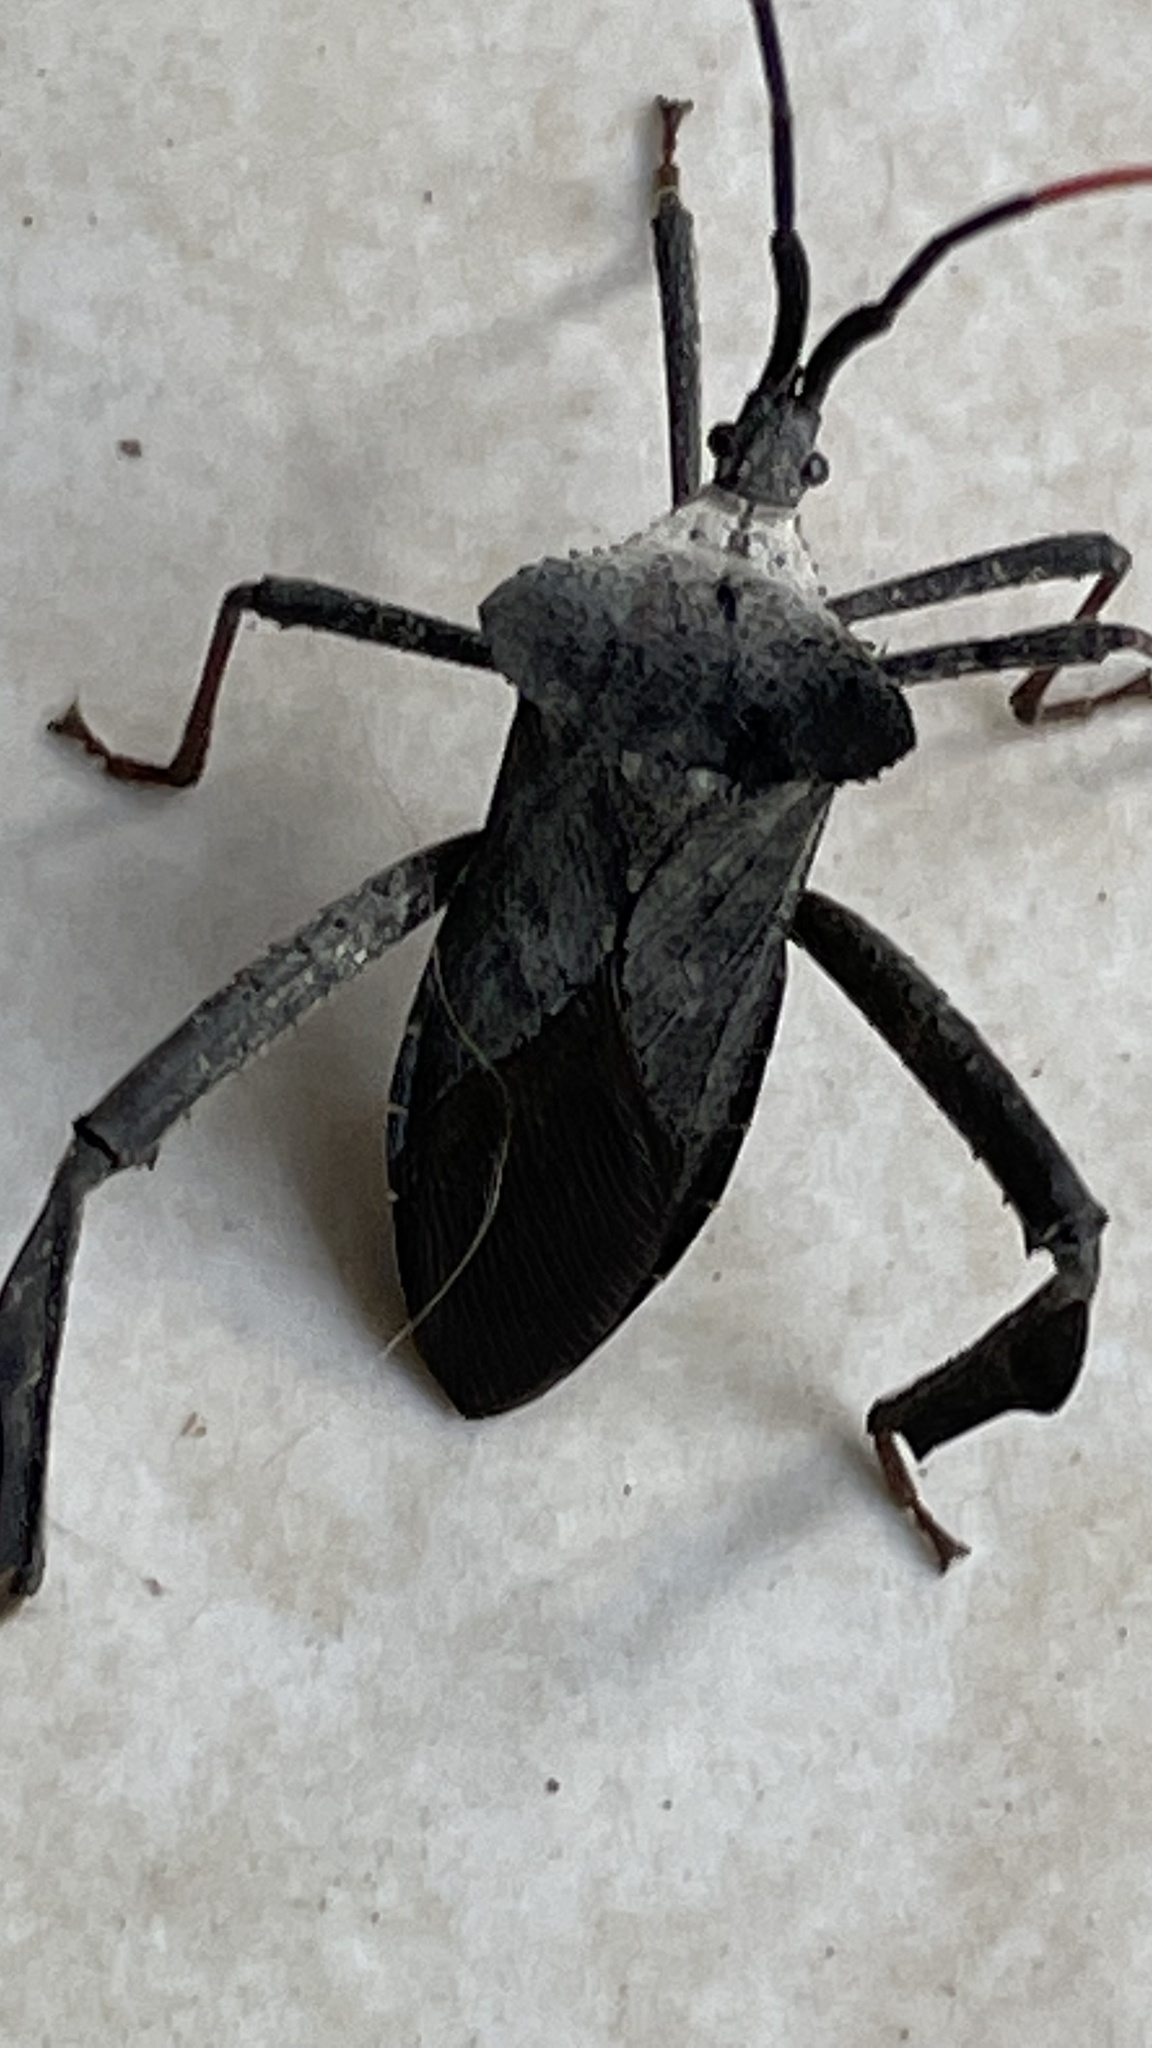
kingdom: Animalia
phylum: Arthropoda
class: Insecta
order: Hemiptera
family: Coreidae
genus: Acanthocephala
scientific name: Acanthocephala alata
